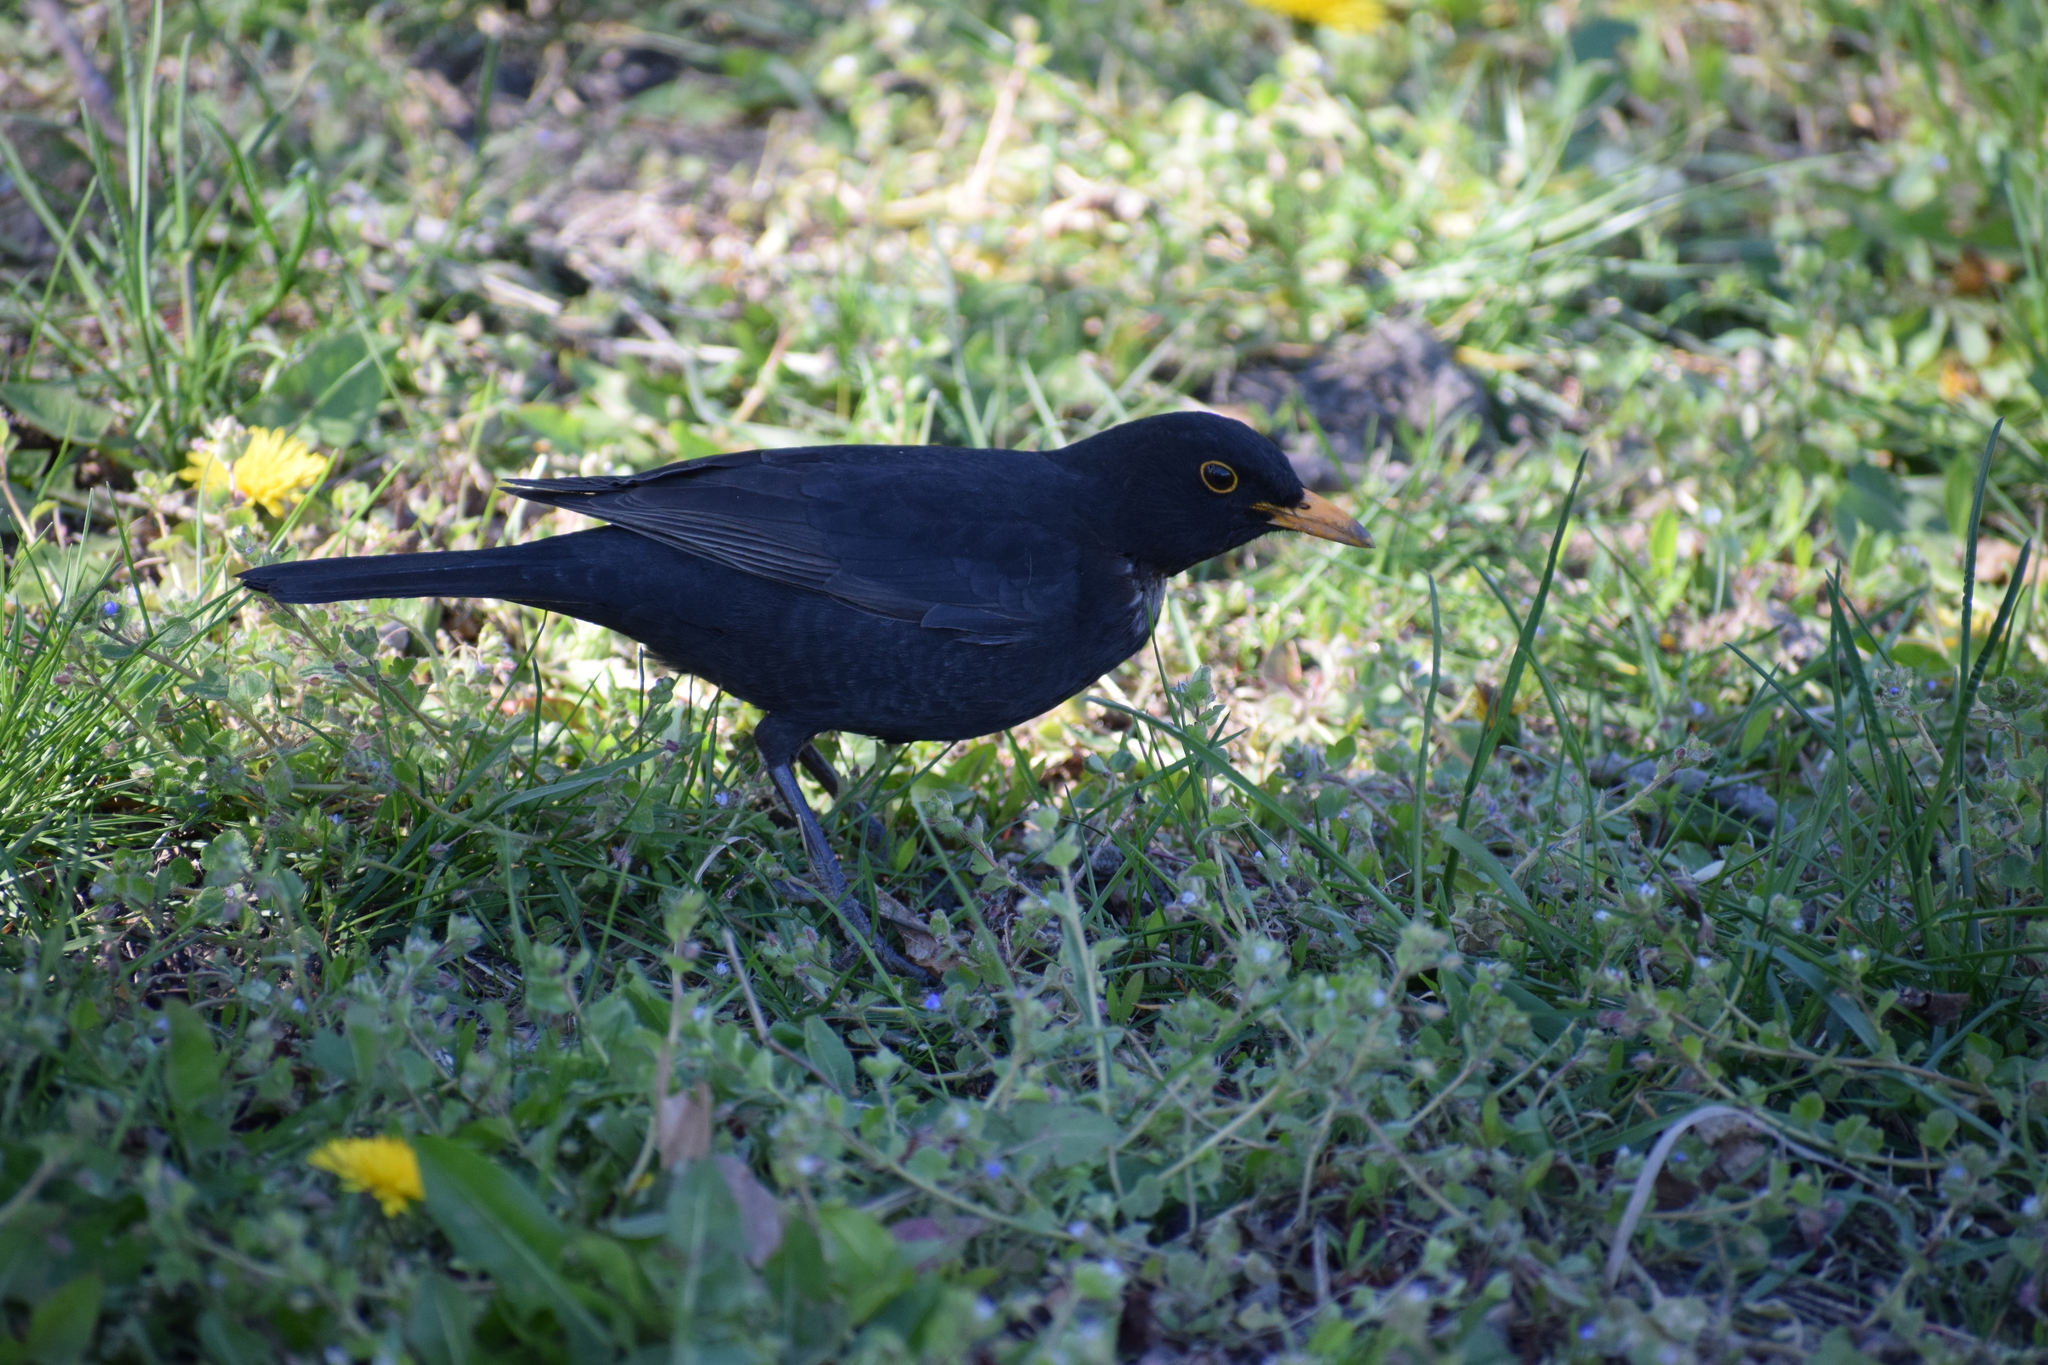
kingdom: Animalia
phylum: Chordata
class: Aves
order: Passeriformes
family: Turdidae
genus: Turdus
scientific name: Turdus merula
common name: Common blackbird
